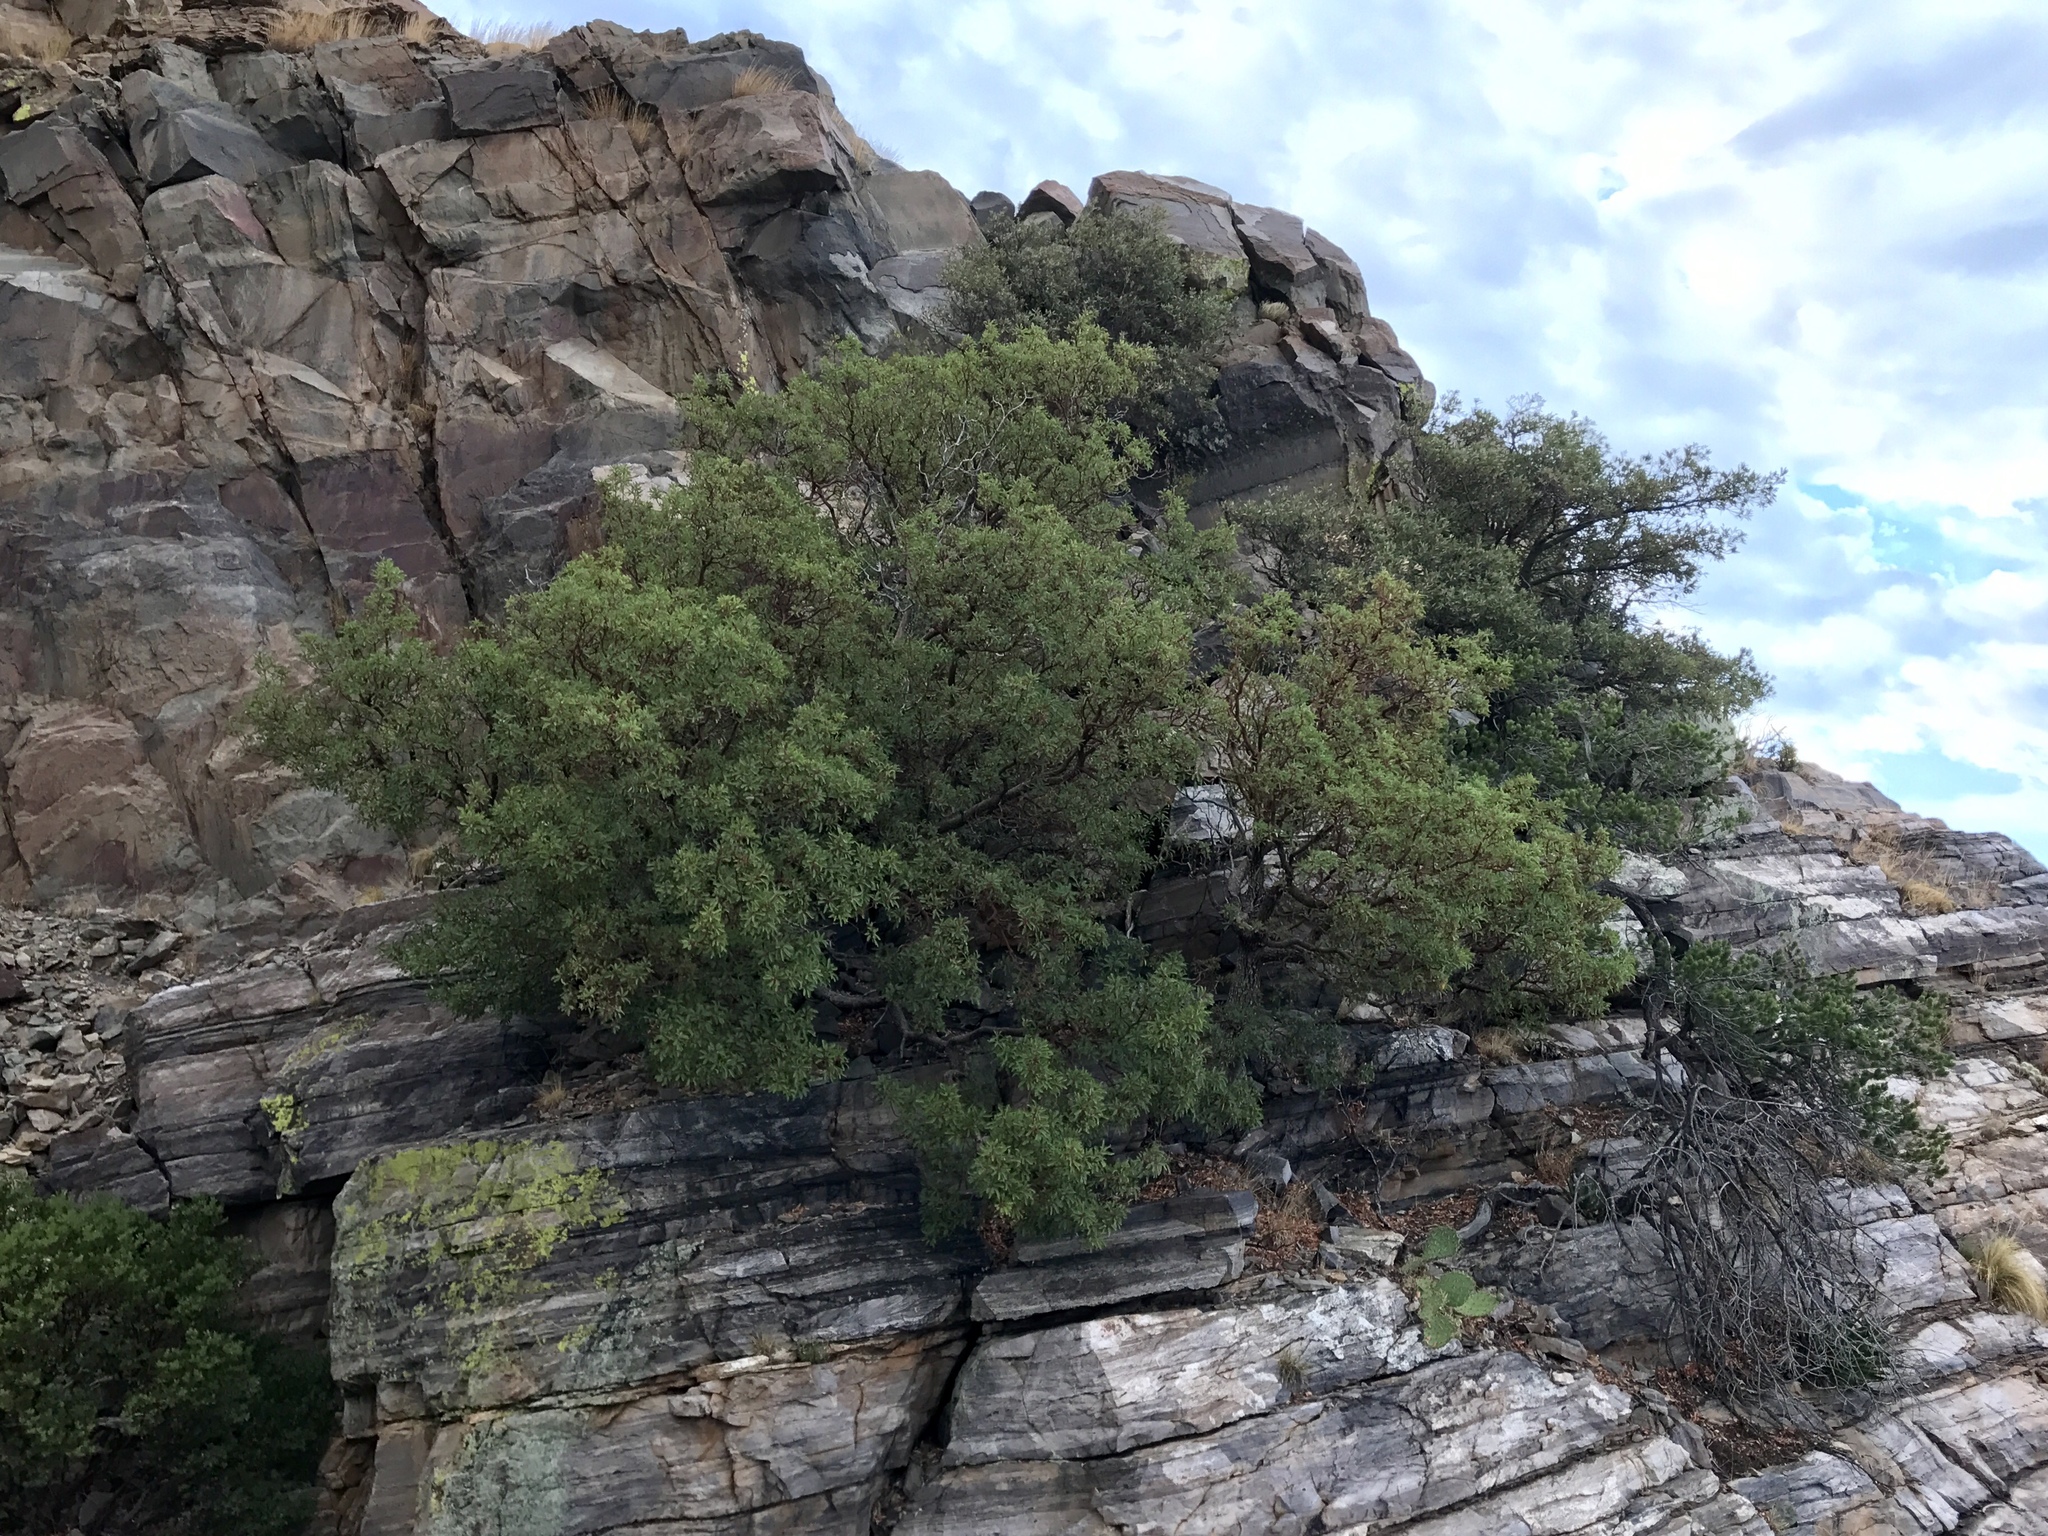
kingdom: Plantae
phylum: Tracheophyta
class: Magnoliopsida
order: Ericales
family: Ericaceae
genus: Arbutus
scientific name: Arbutus arizonica
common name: Arizona madrone
